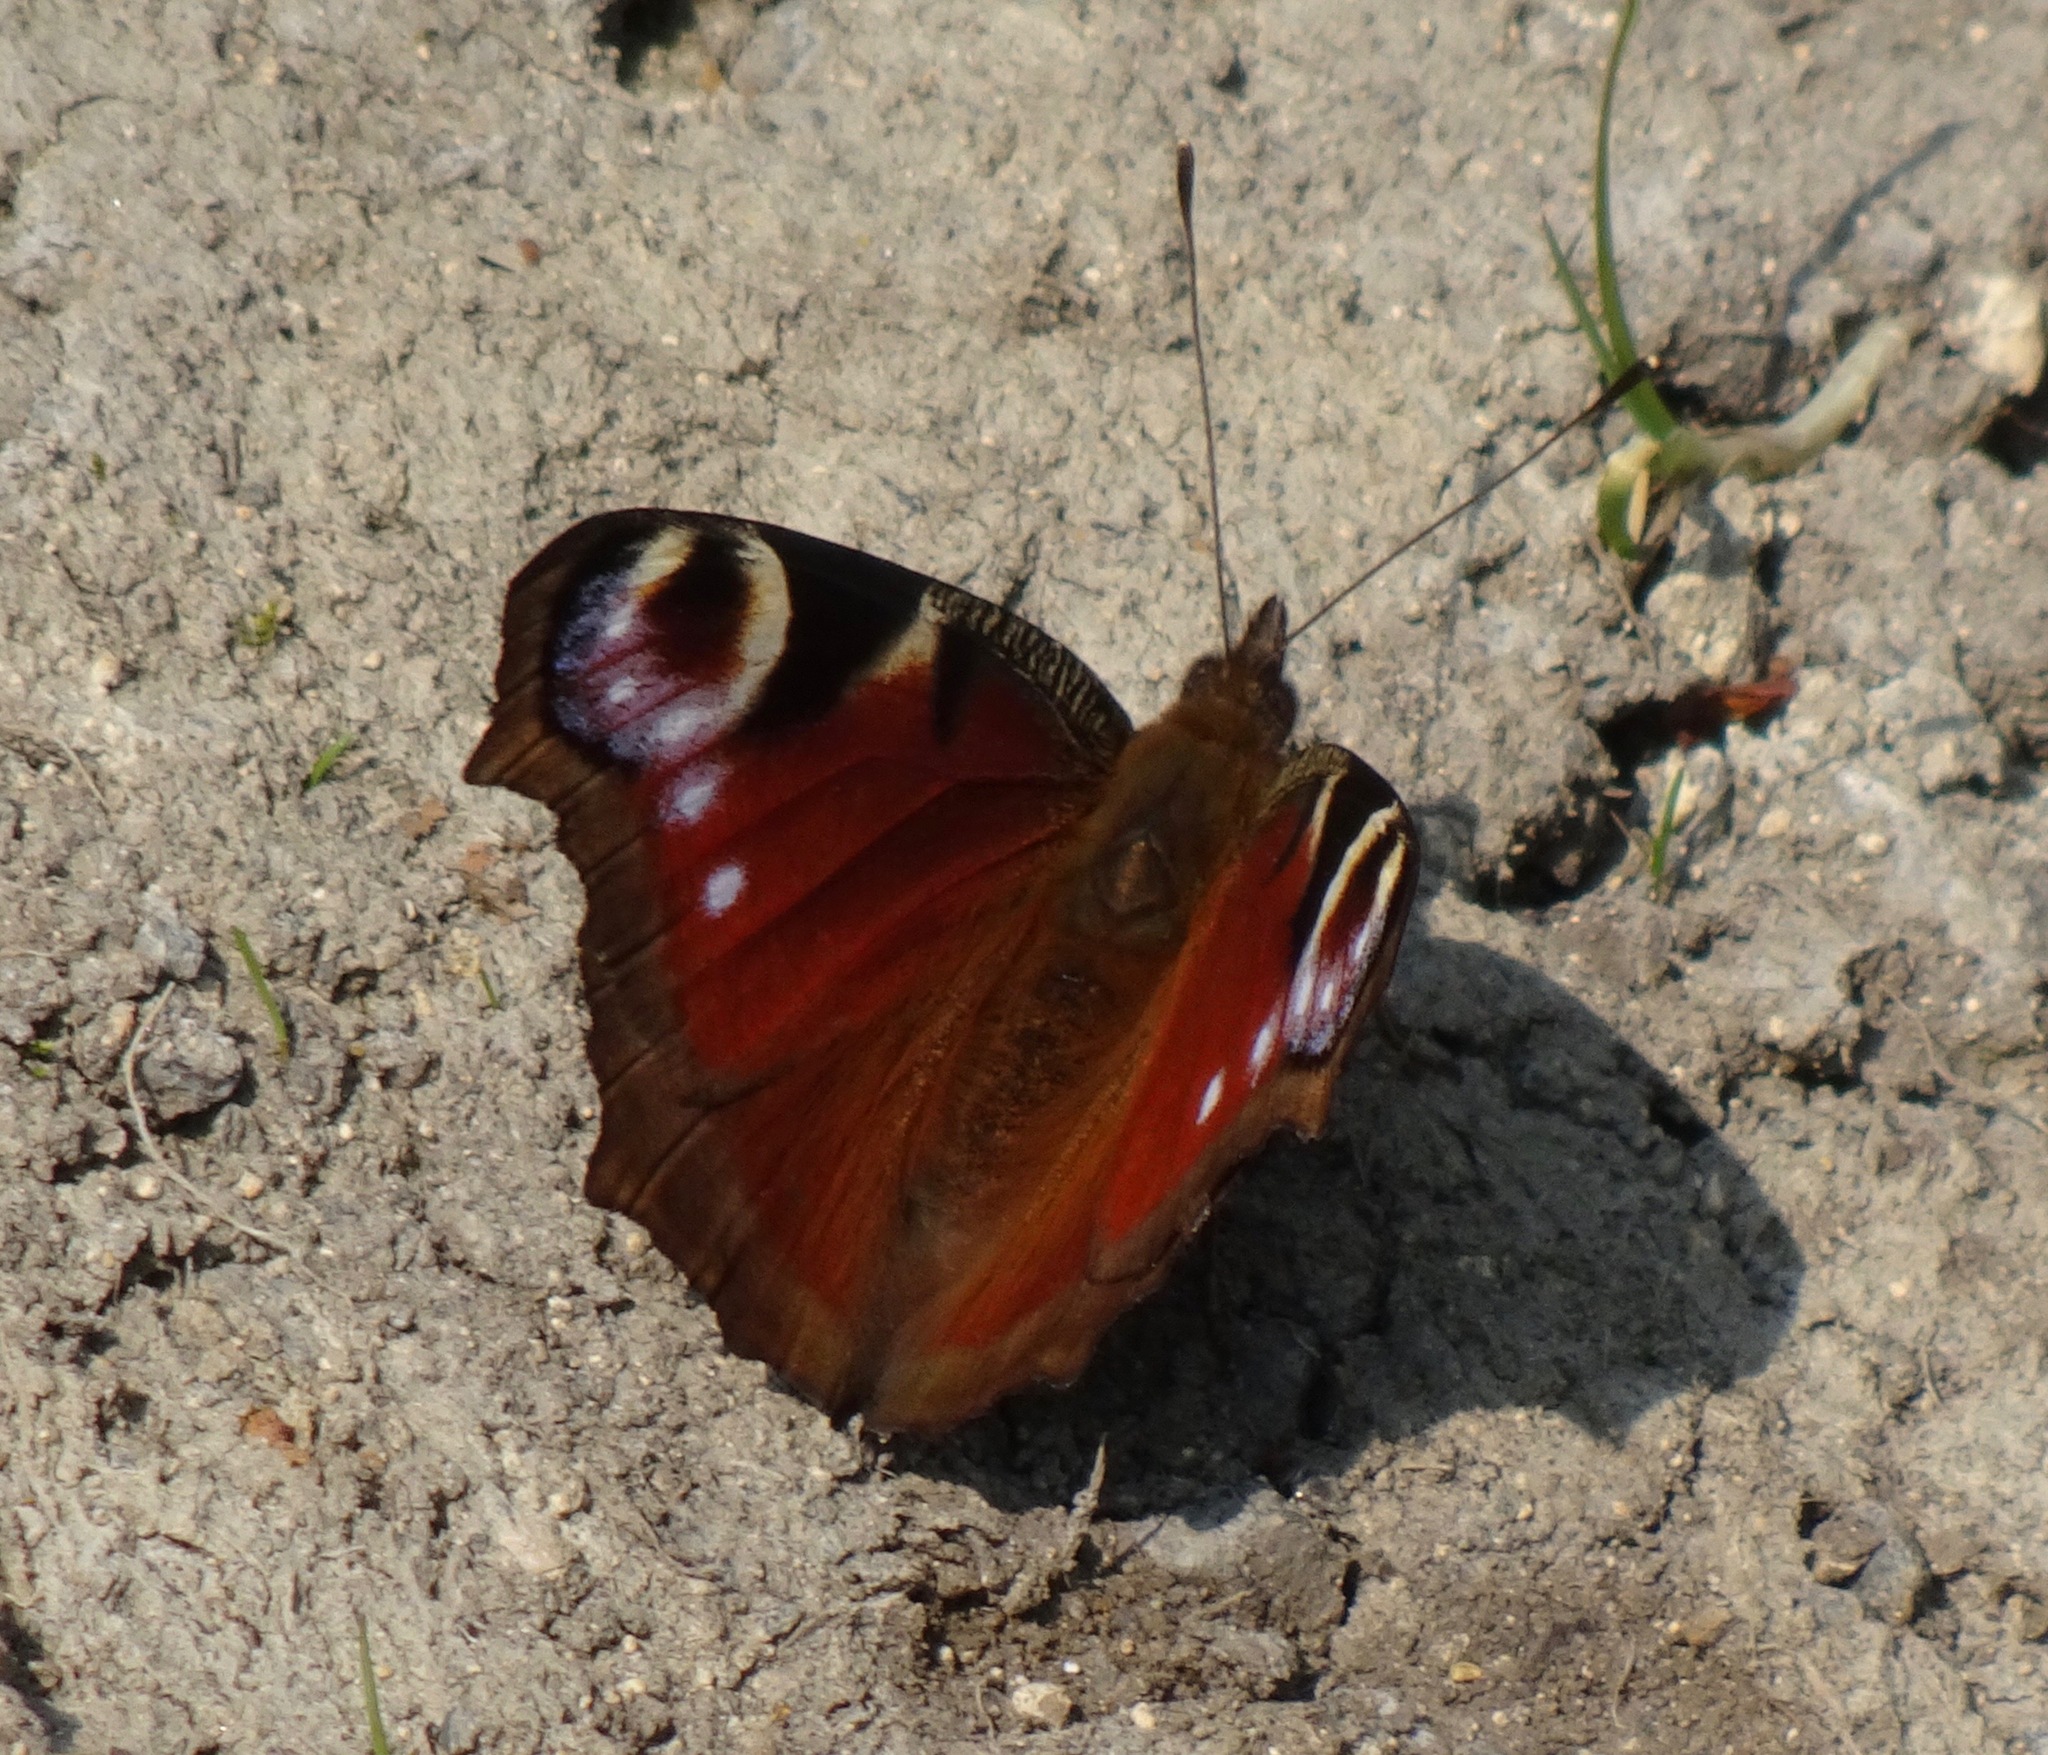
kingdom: Animalia
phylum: Arthropoda
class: Insecta
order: Lepidoptera
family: Nymphalidae
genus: Aglais
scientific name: Aglais io
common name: Peacock
